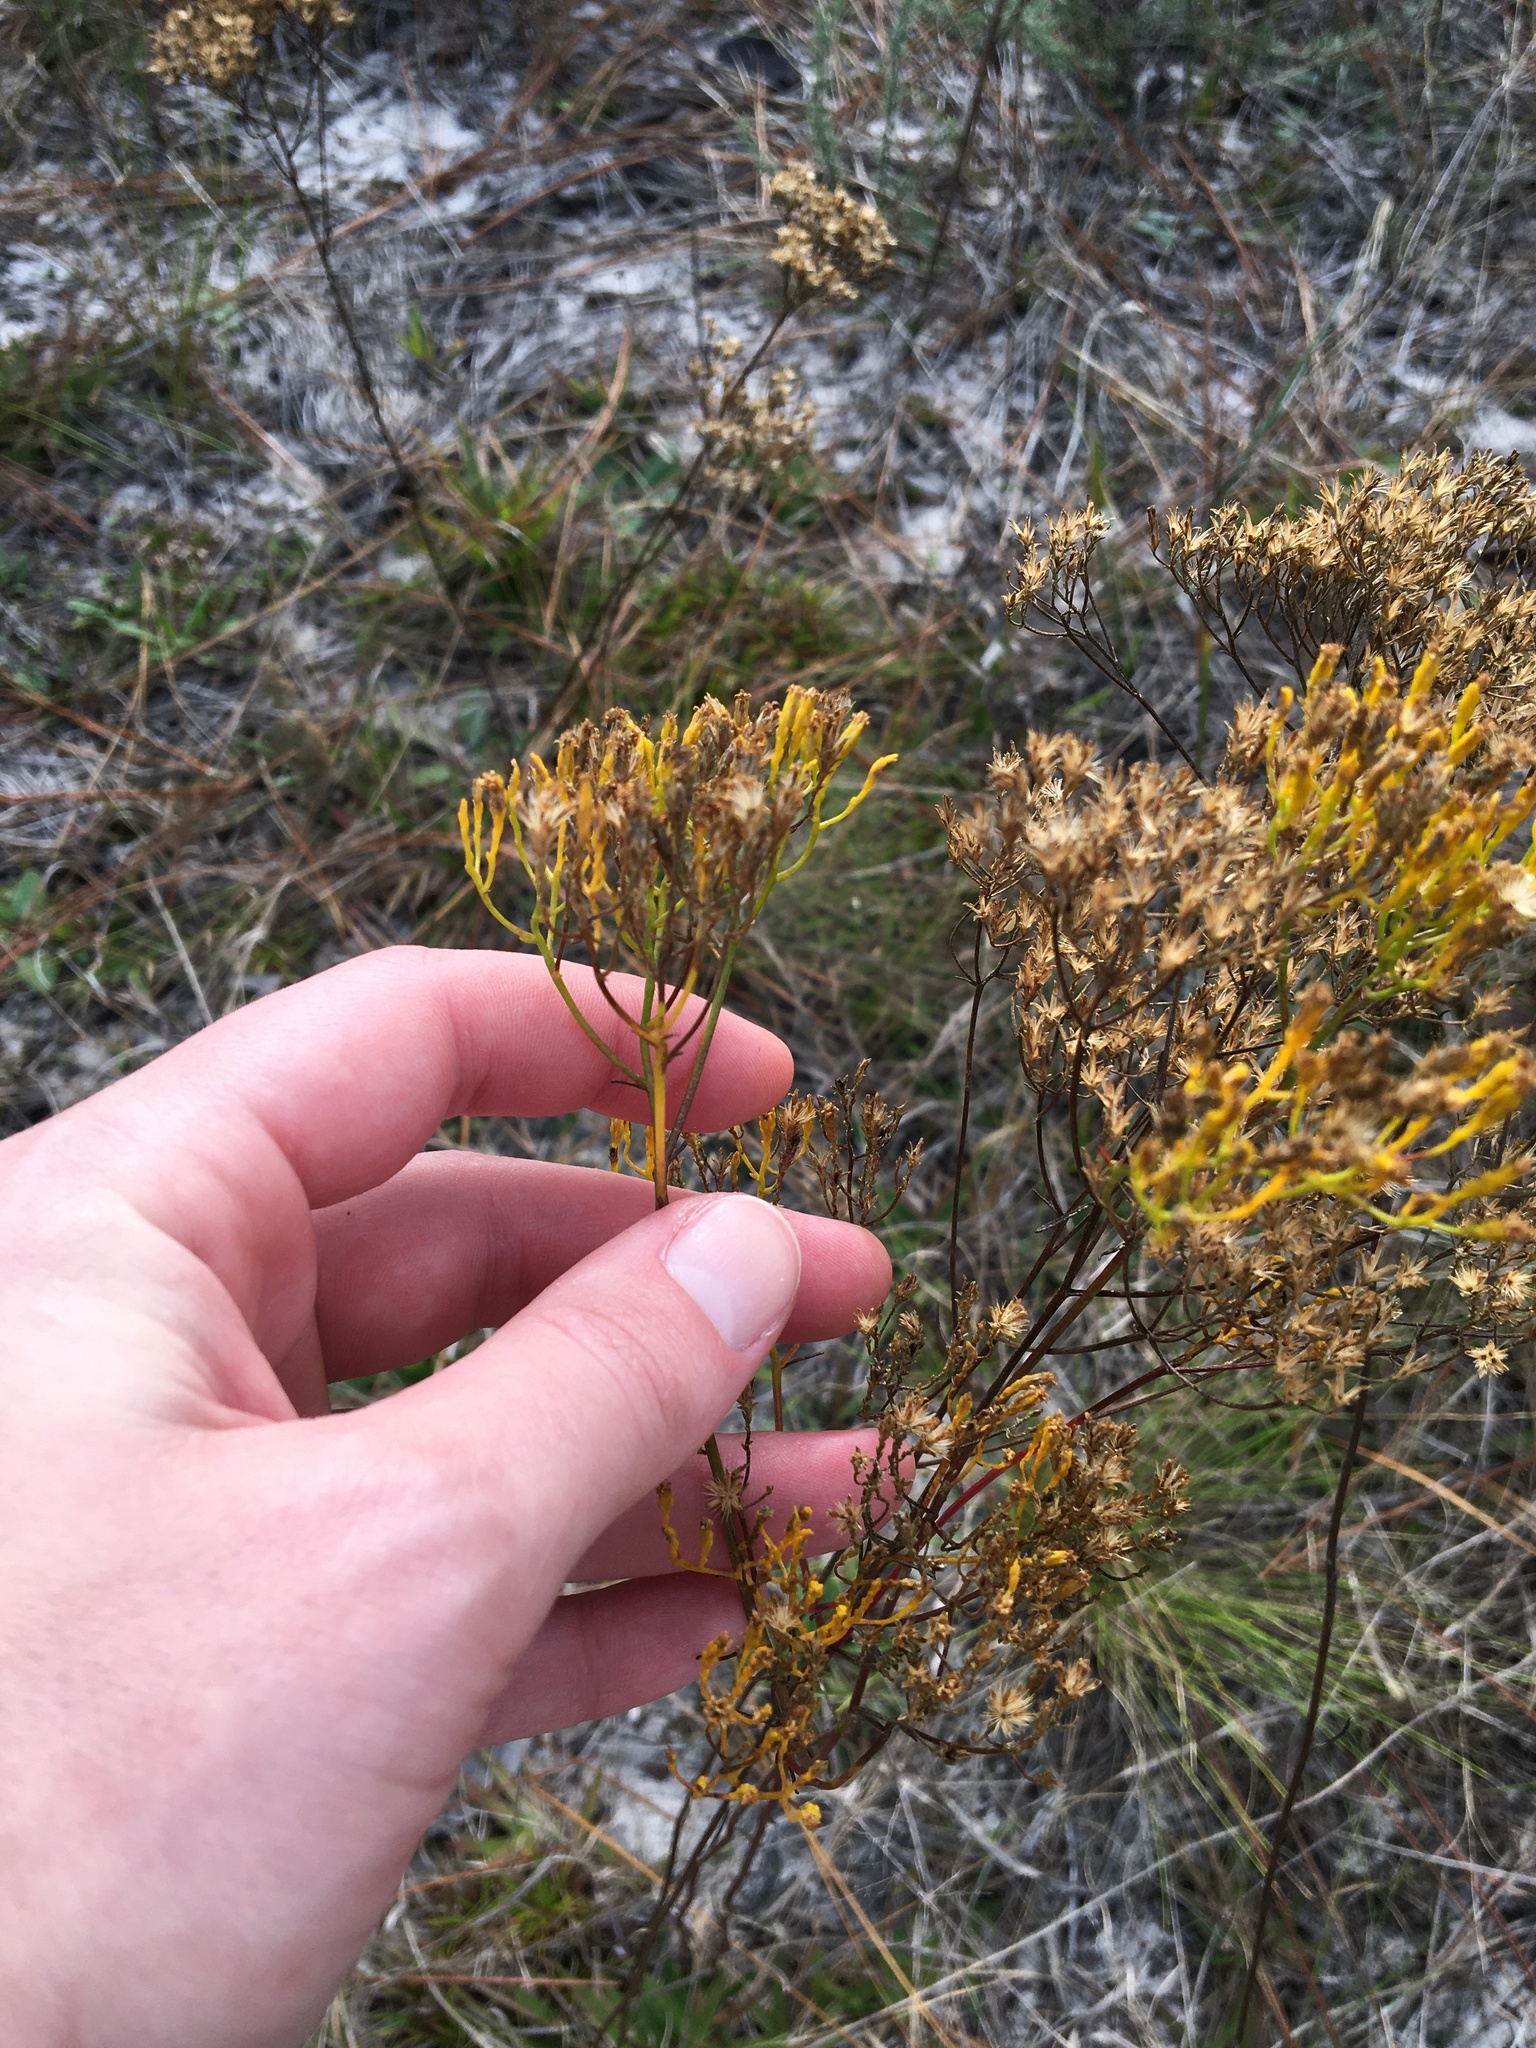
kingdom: Plantae
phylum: Tracheophyta
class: Magnoliopsida
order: Asterales
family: Asteraceae
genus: Bigelowia
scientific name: Bigelowia nudata
